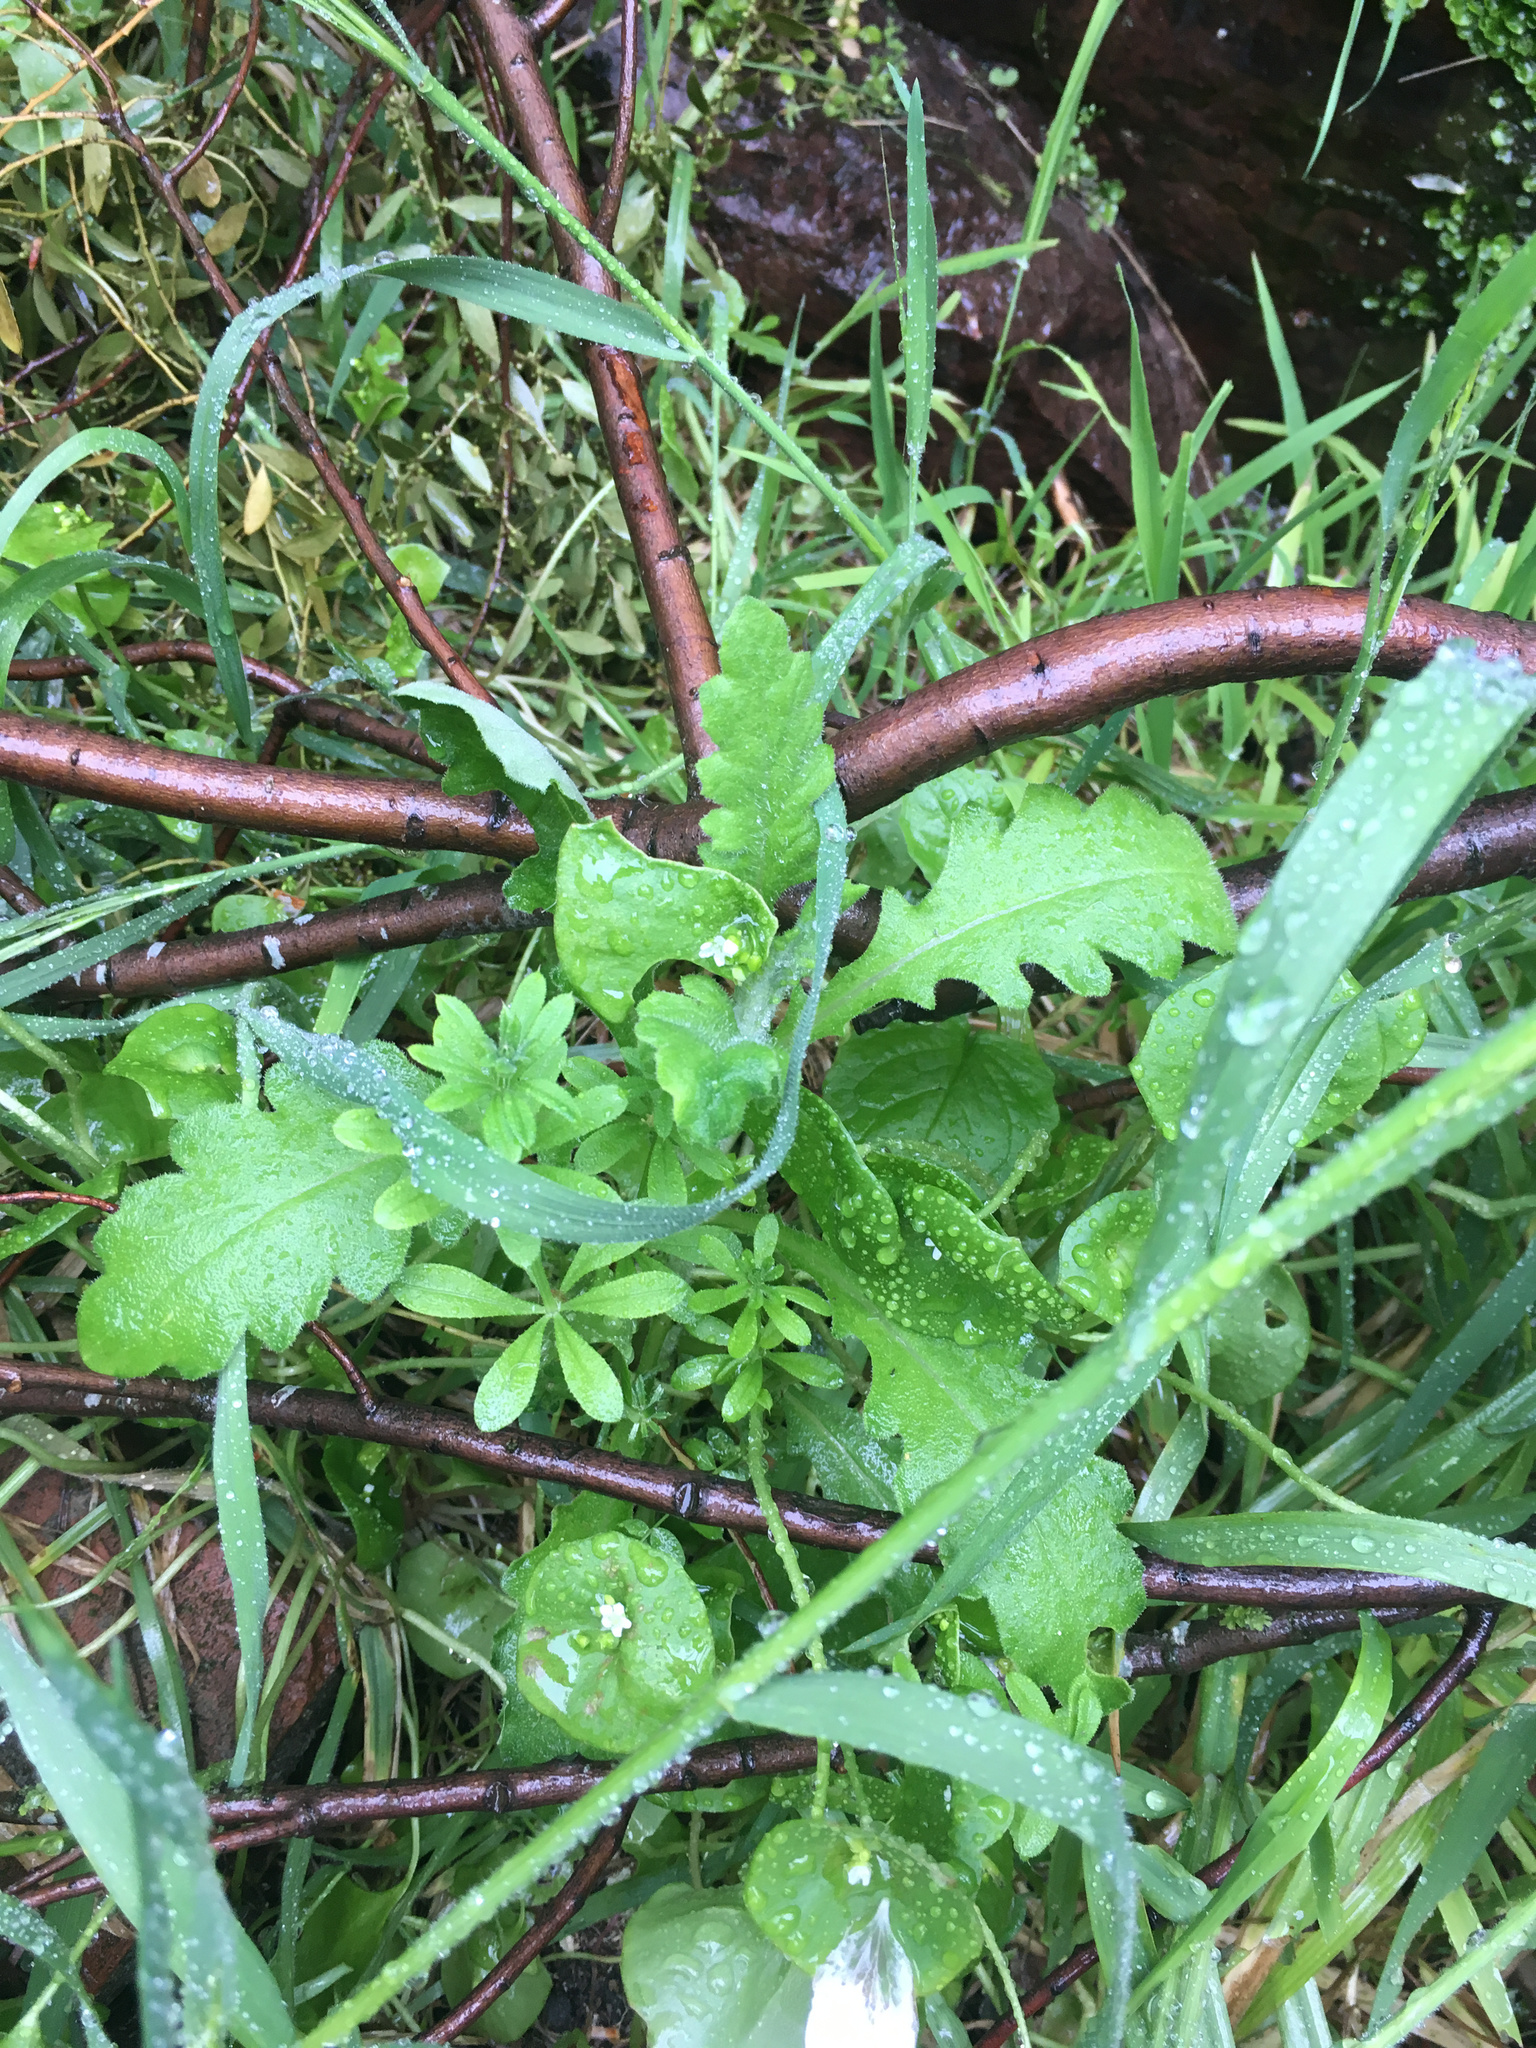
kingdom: Plantae
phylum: Tracheophyta
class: Magnoliopsida
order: Asterales
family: Asteraceae
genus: Senecio
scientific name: Senecio glomeratus
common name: Cutleaf burnweed
